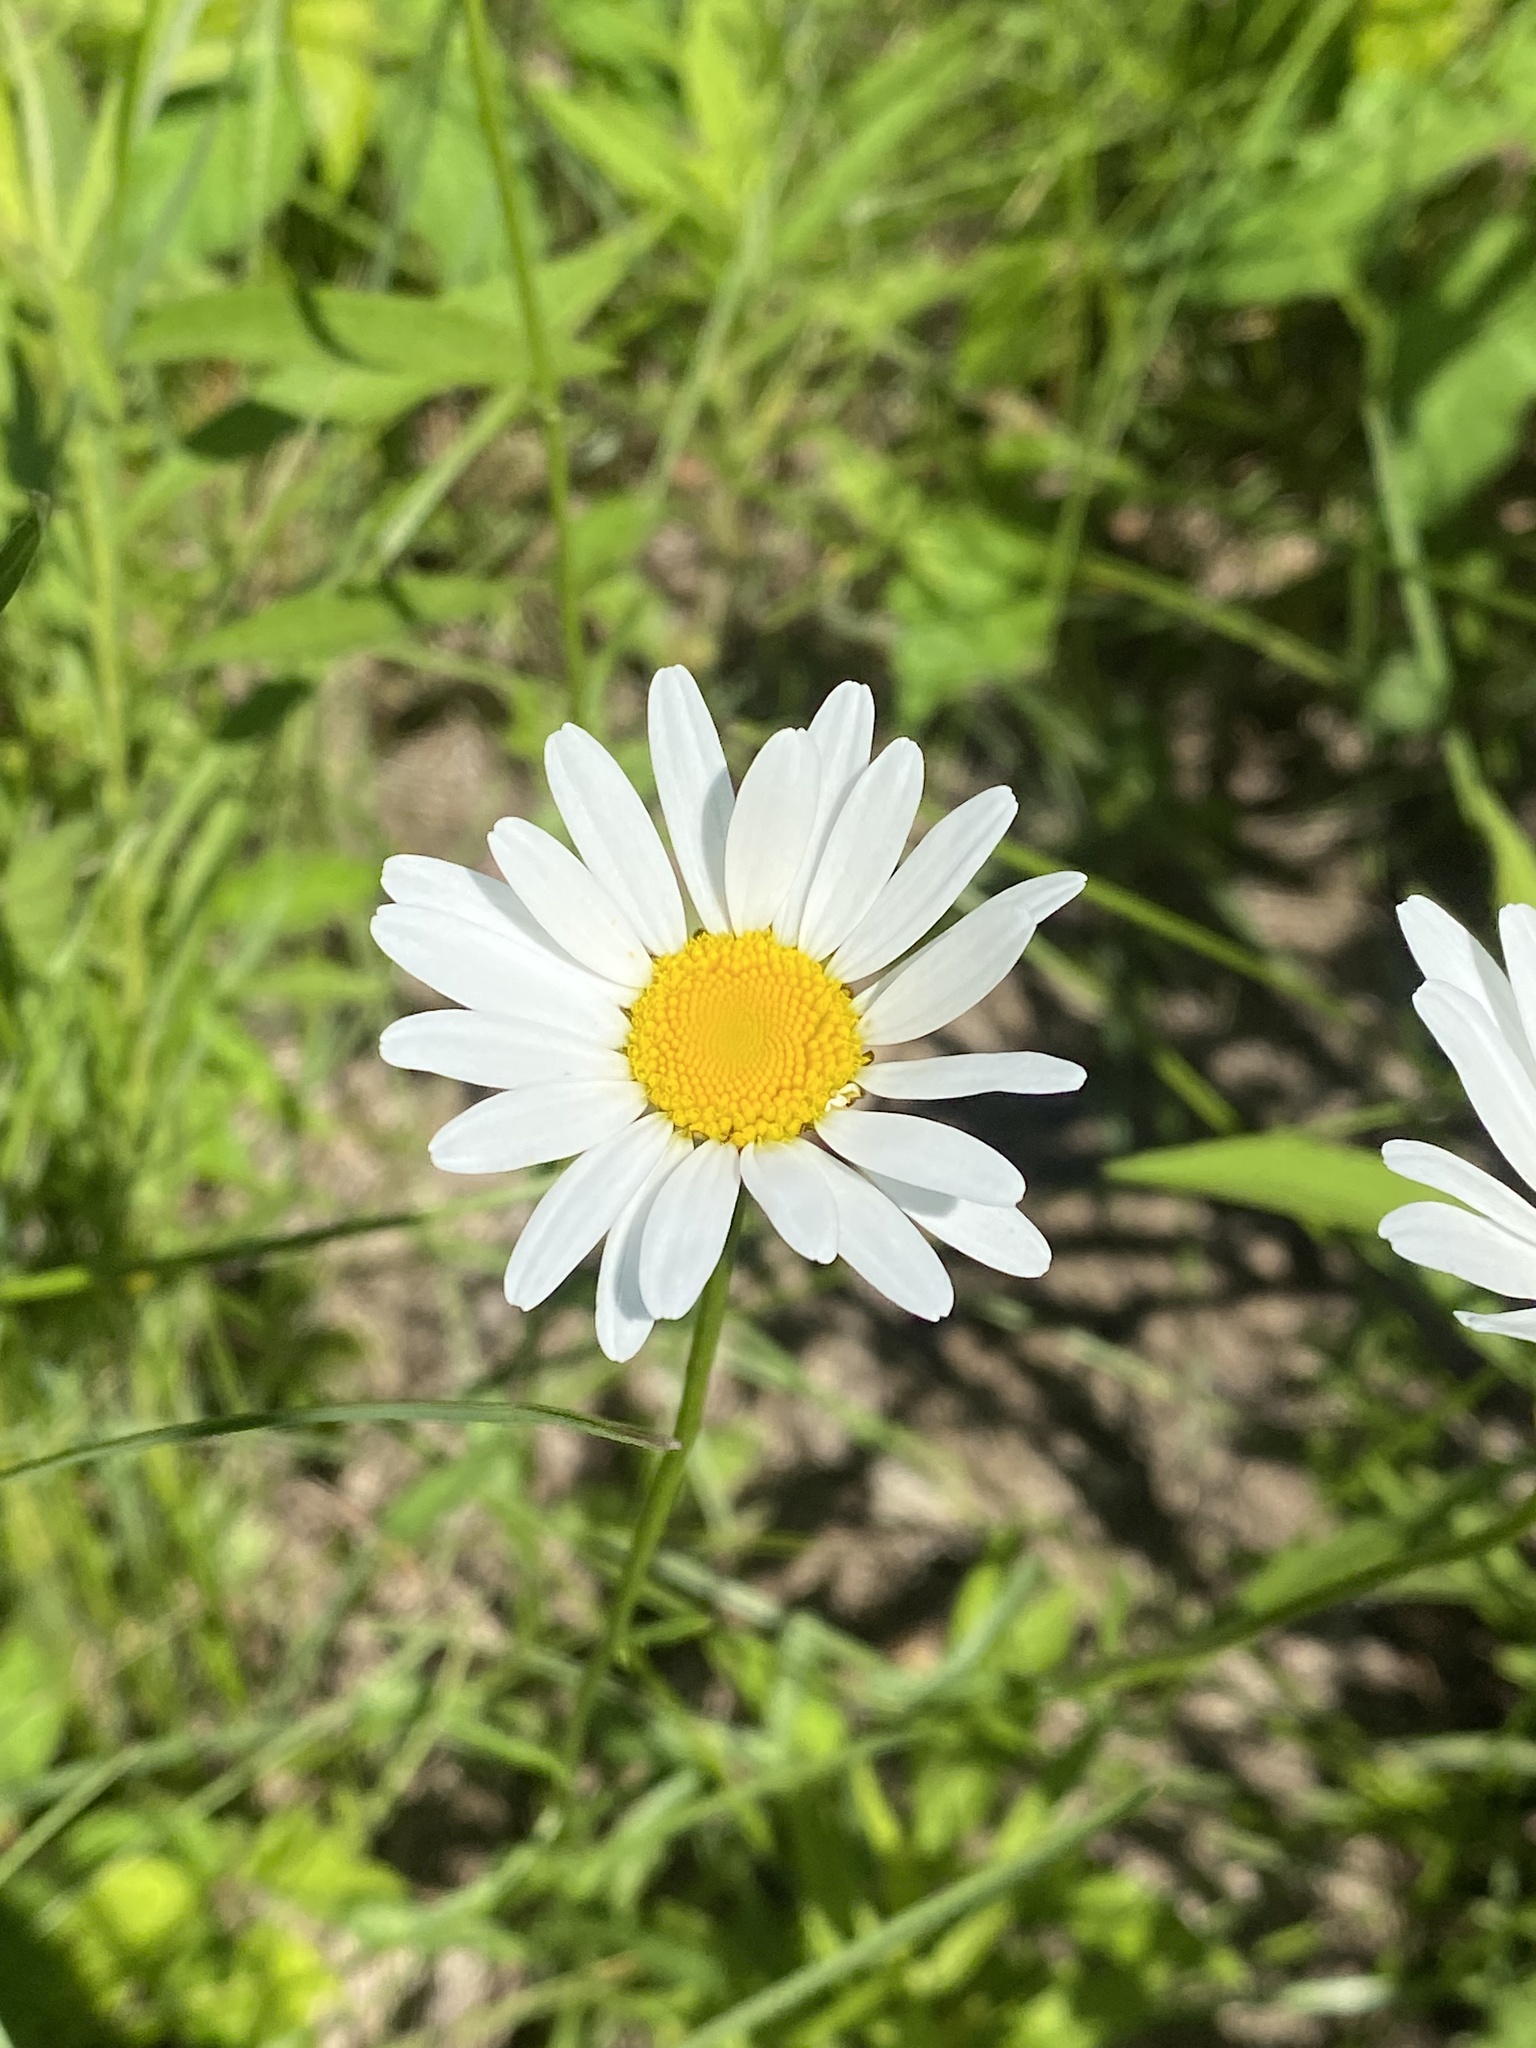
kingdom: Plantae
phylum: Tracheophyta
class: Magnoliopsida
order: Asterales
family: Asteraceae
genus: Leucanthemum
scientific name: Leucanthemum vulgare
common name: Oxeye daisy
